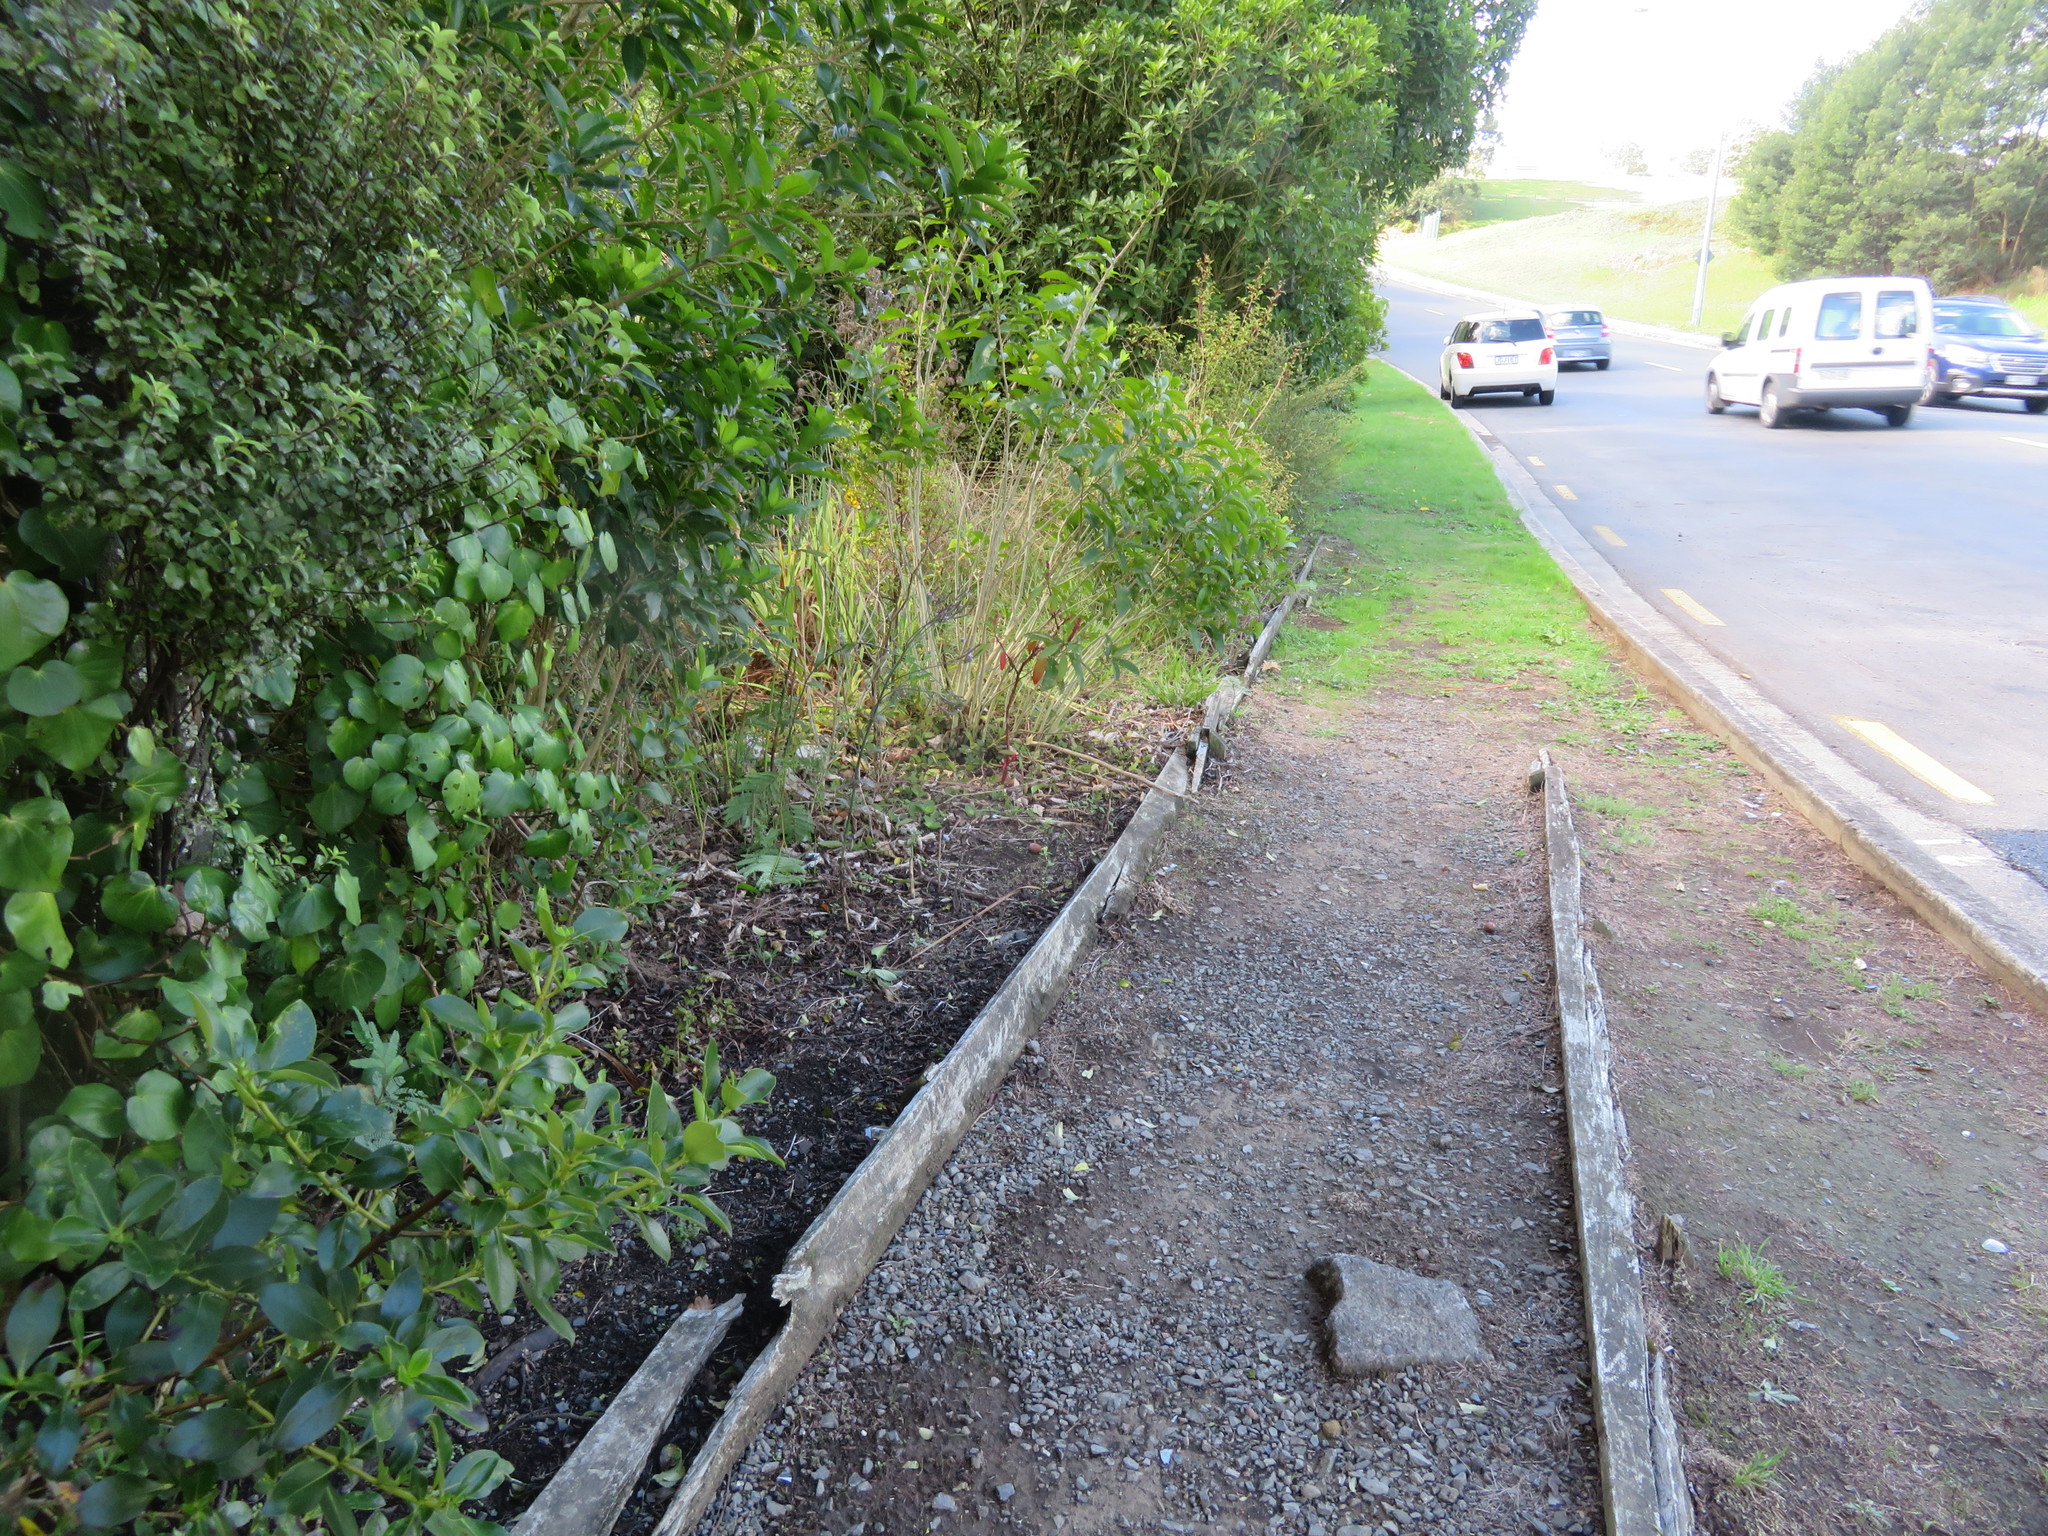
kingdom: Plantae
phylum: Tracheophyta
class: Magnoliopsida
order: Piperales
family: Piperaceae
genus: Macropiper
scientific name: Macropiper excelsum
